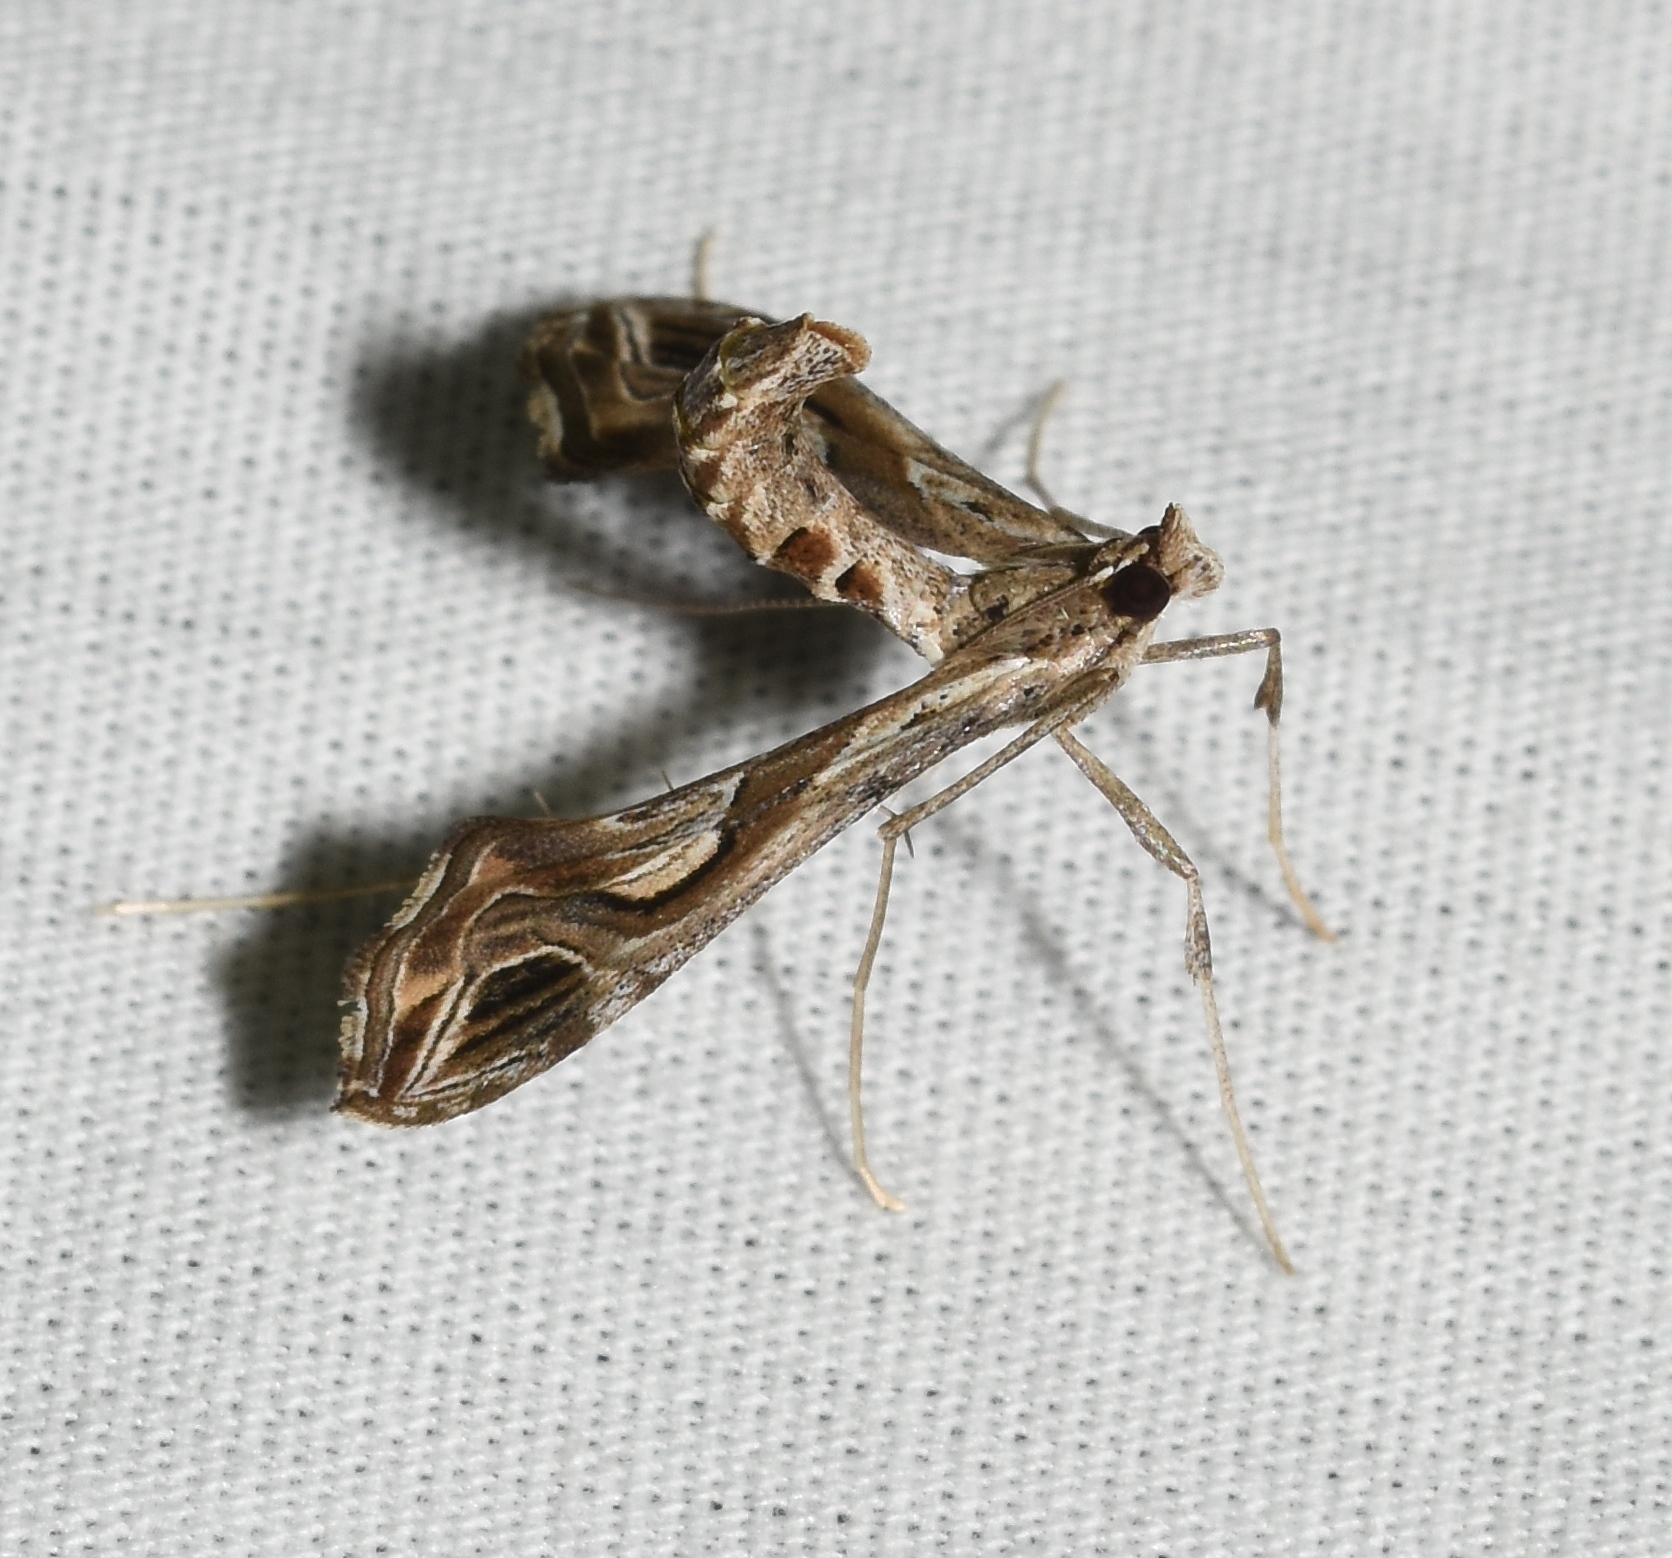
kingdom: Animalia
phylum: Arthropoda
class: Insecta
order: Lepidoptera
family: Crambidae
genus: Lineodes
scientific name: Lineodes integra
